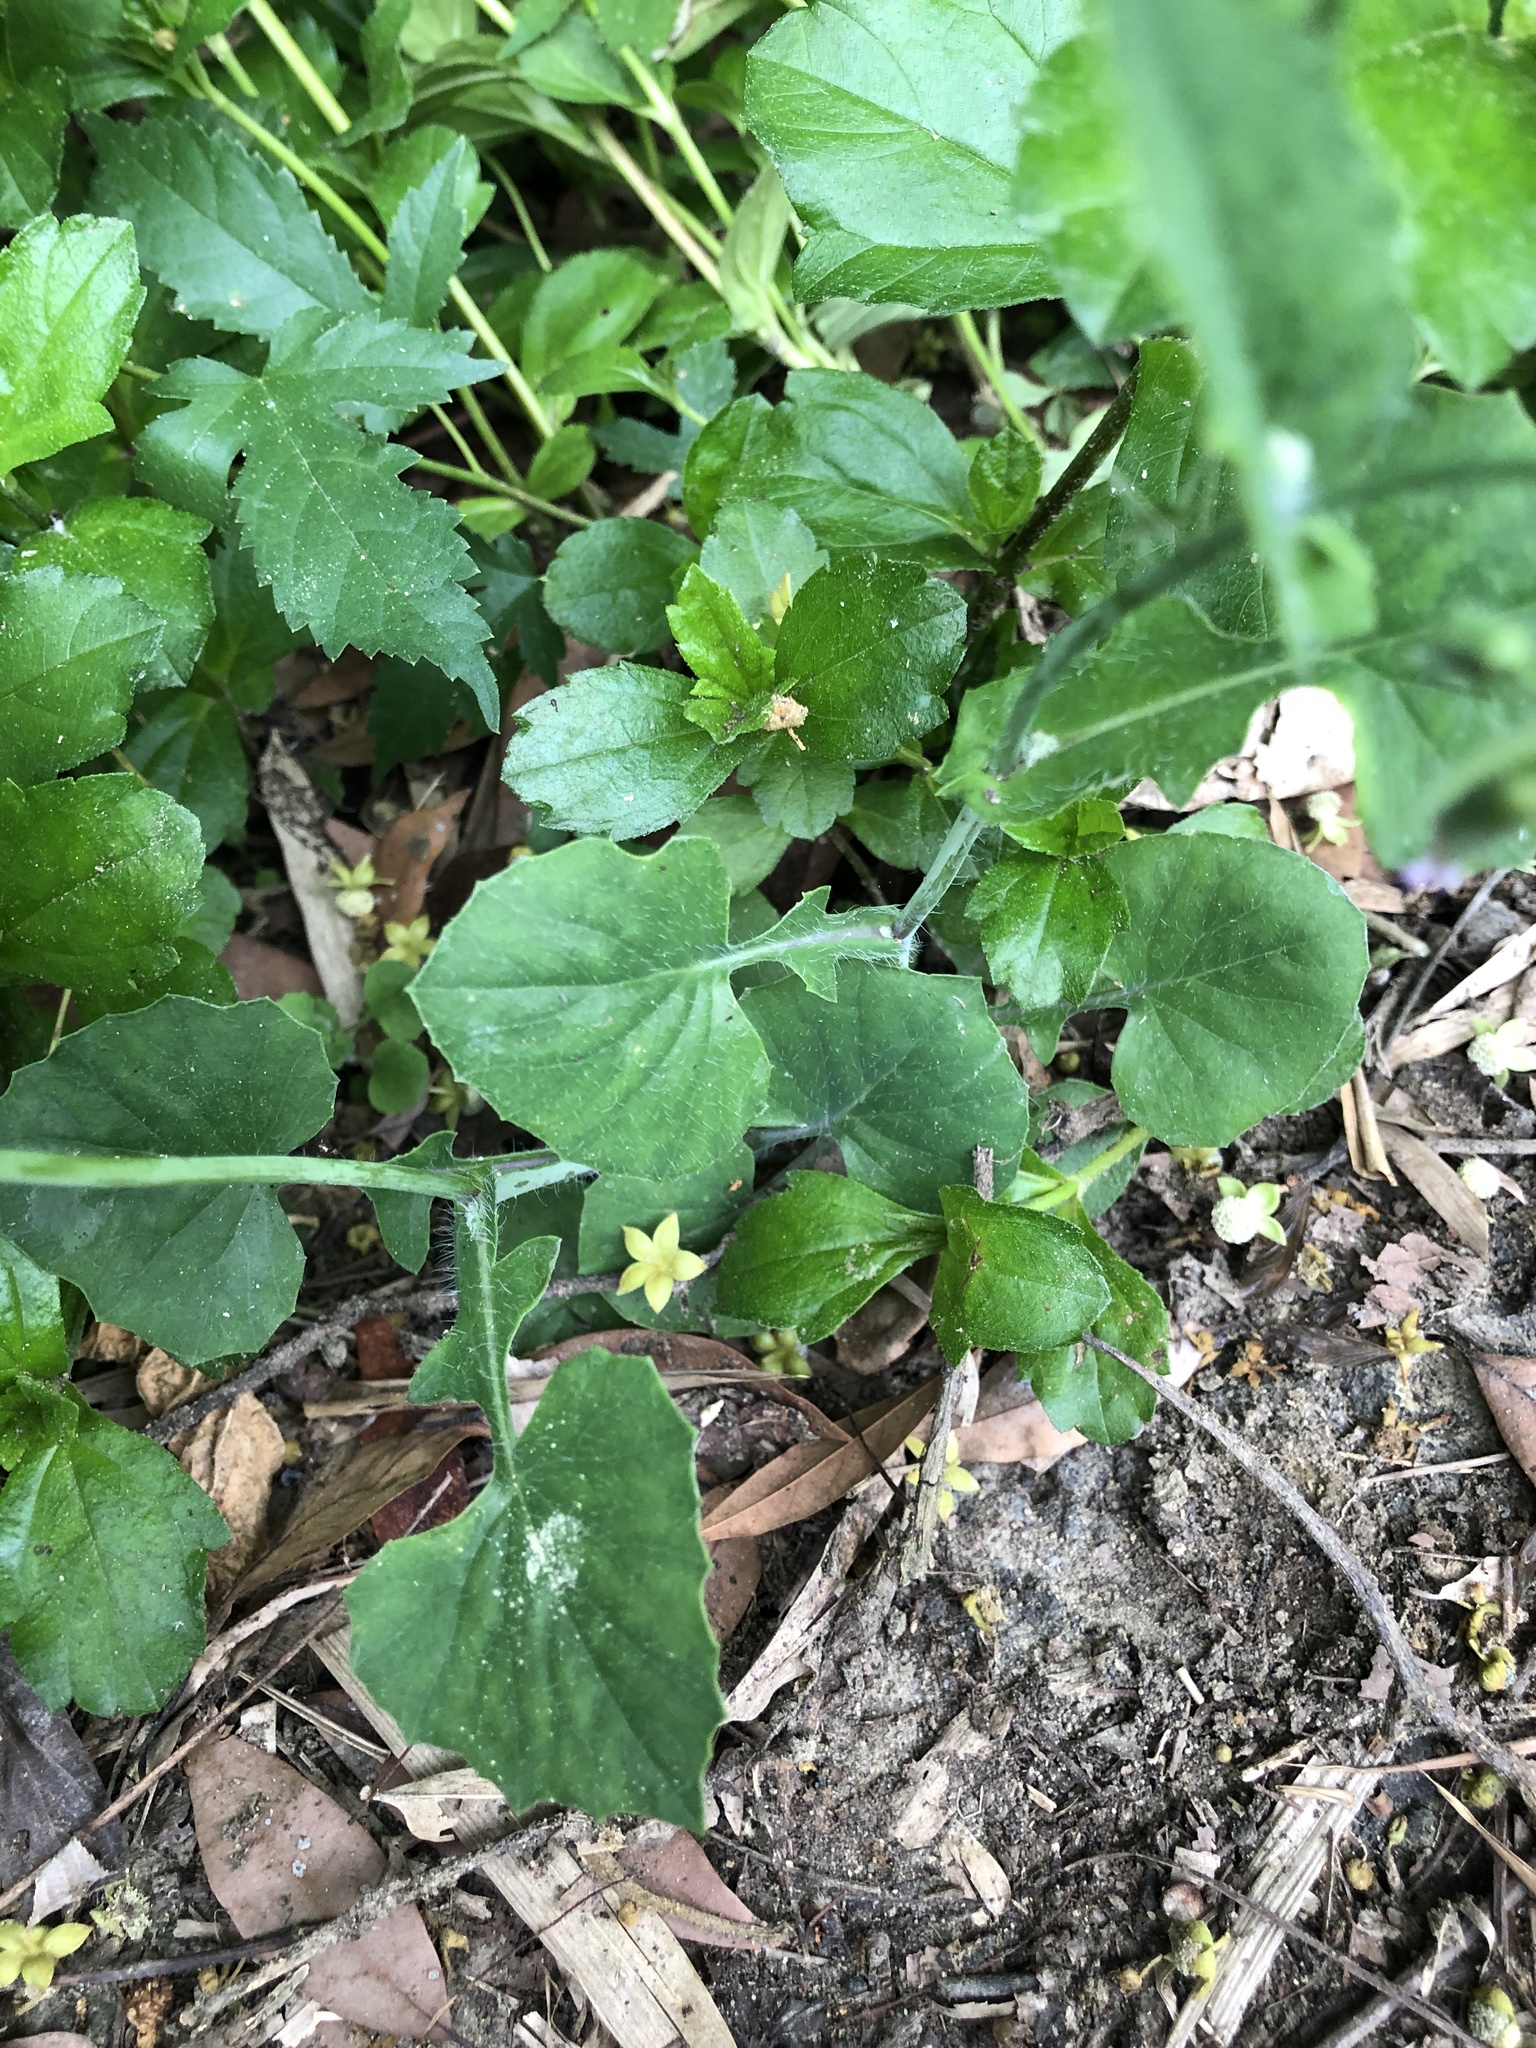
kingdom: Plantae
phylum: Tracheophyta
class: Magnoliopsida
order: Asterales
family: Asteraceae
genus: Emilia
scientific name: Emilia javanica
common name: Tassel-flower
